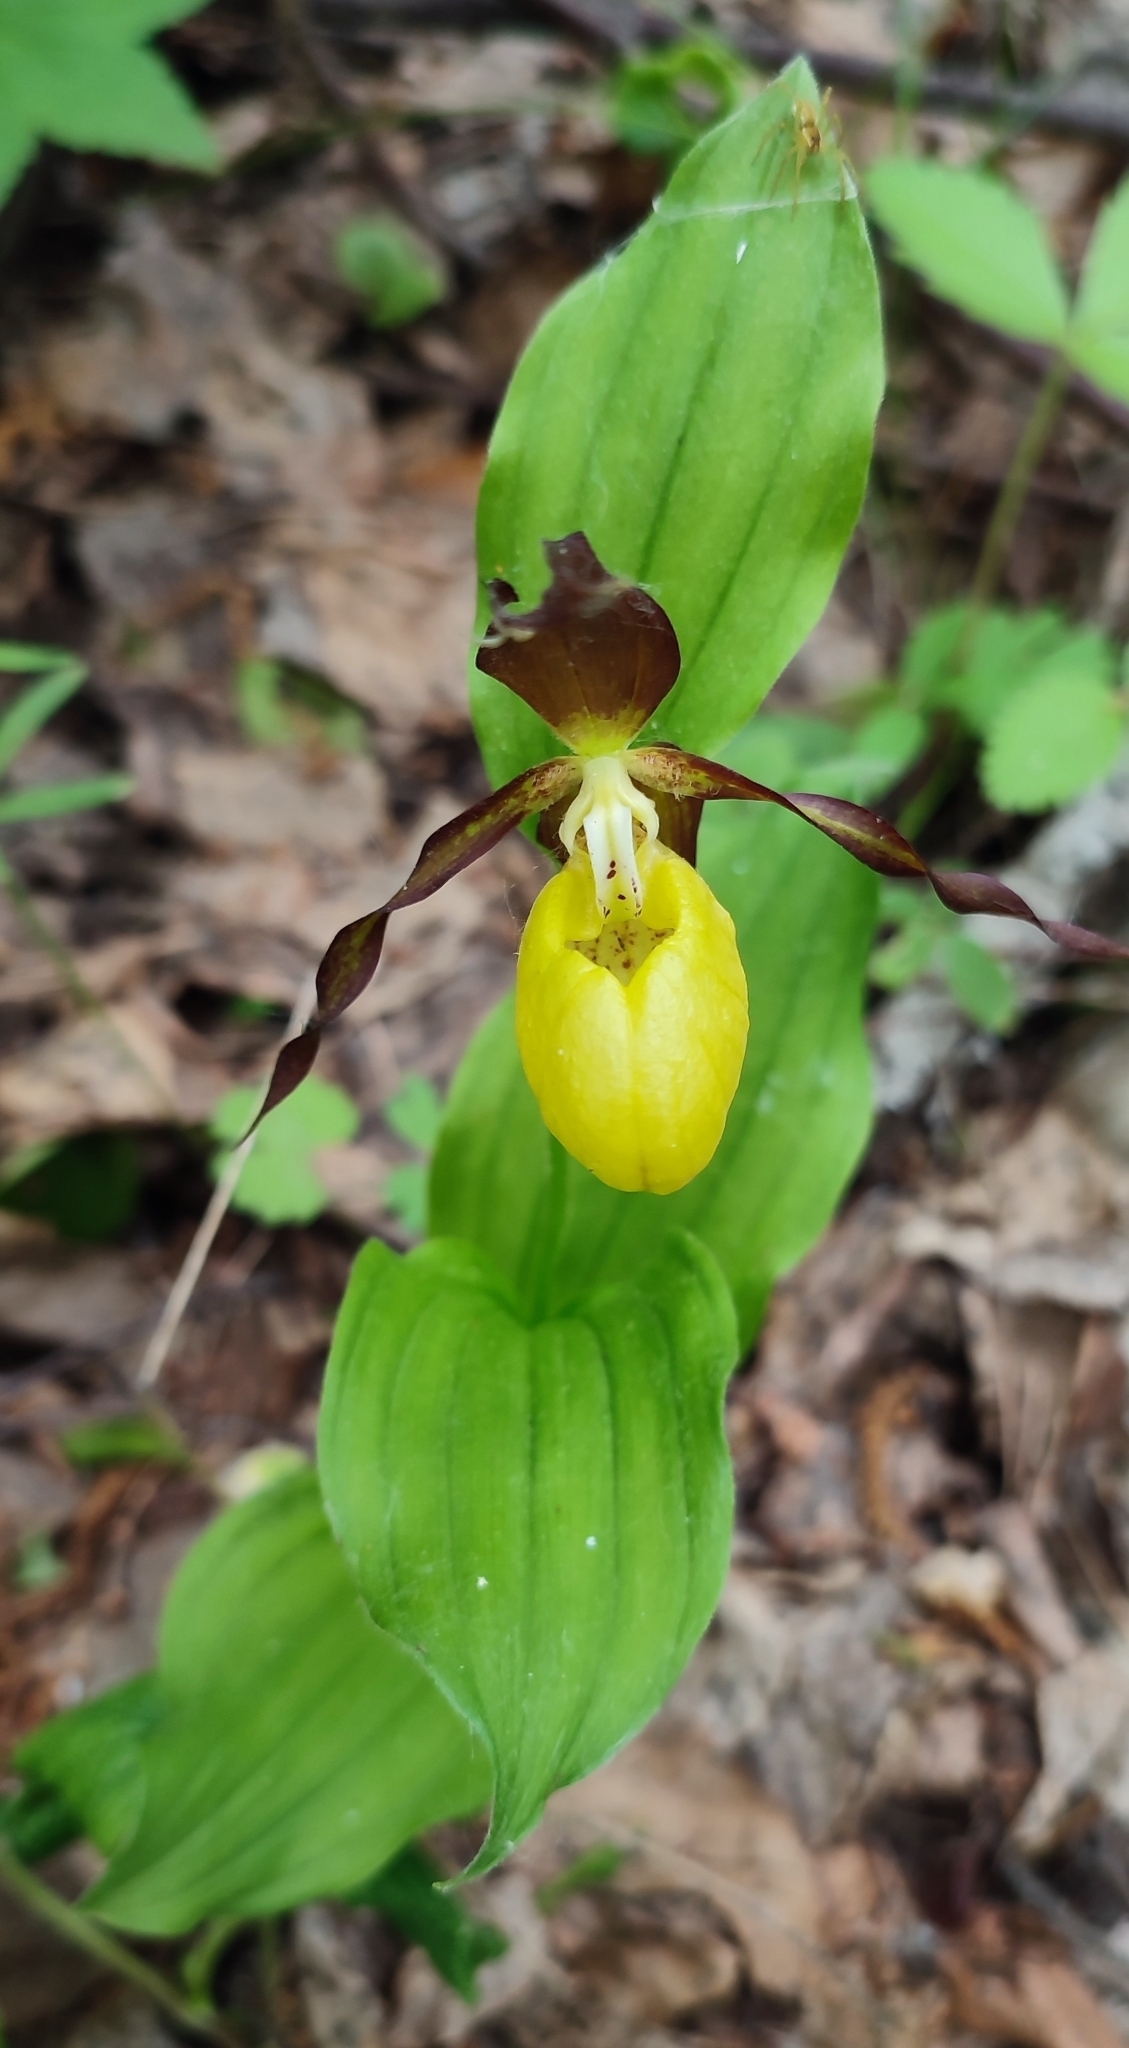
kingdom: Plantae
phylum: Tracheophyta
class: Liliopsida
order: Asparagales
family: Orchidaceae
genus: Cypripedium
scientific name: Cypripedium calceolus
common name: Lady's-slipper
